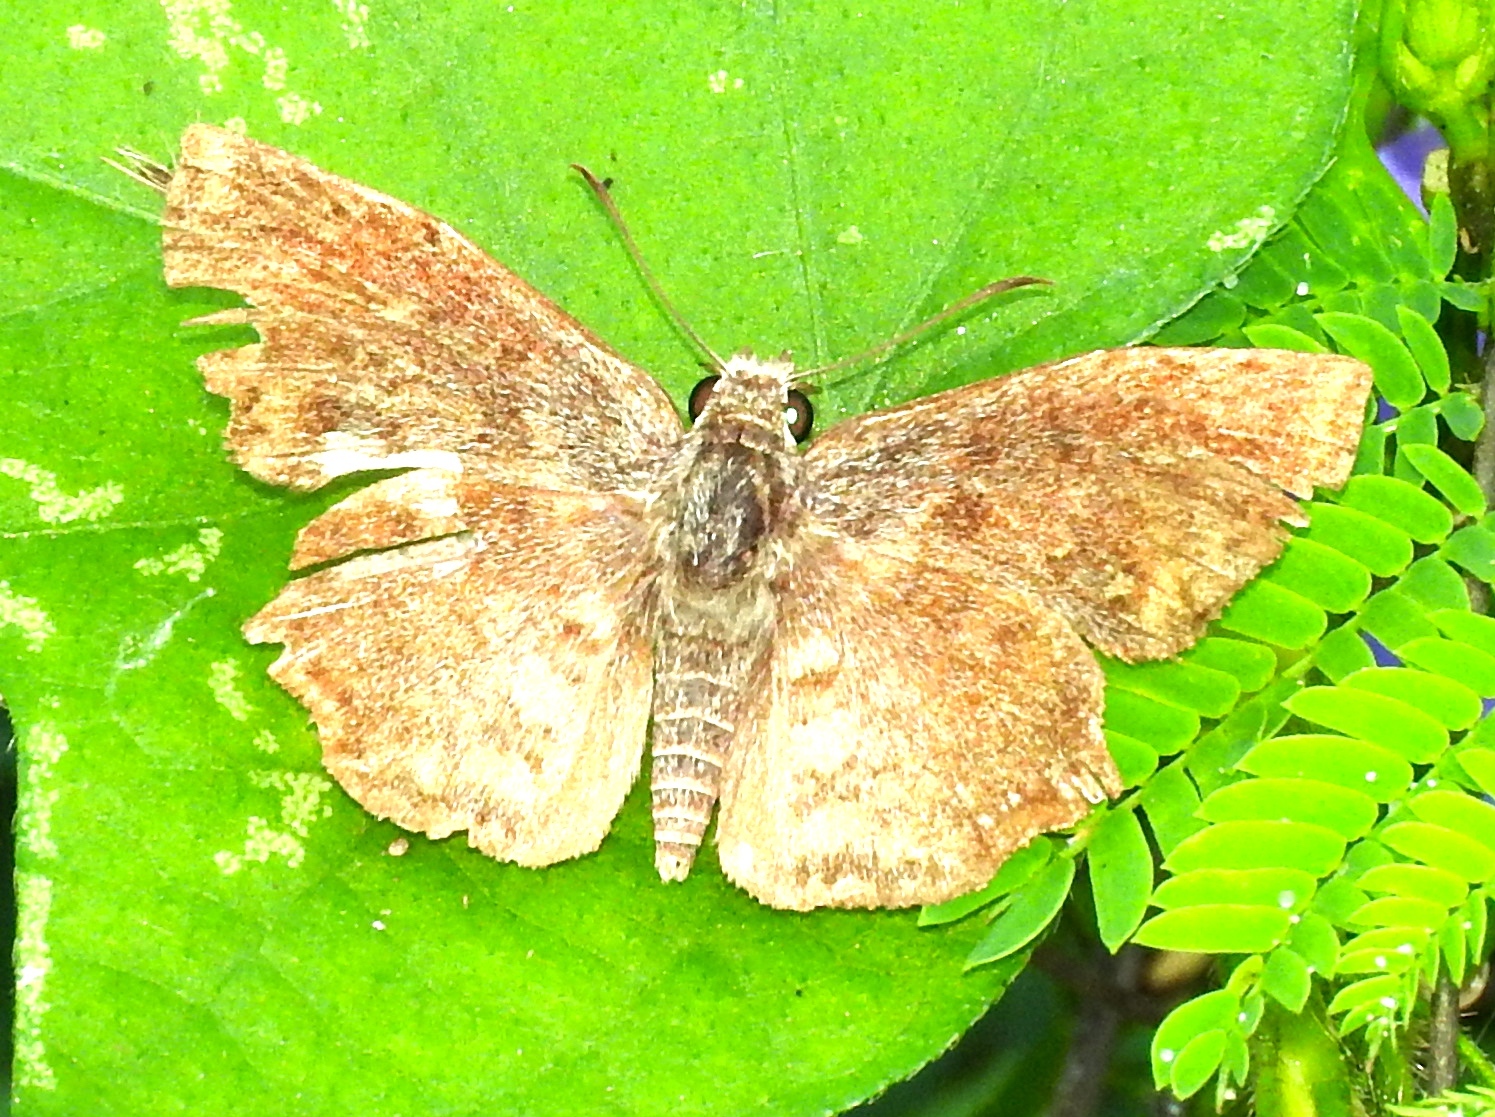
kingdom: Animalia
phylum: Arthropoda
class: Insecta
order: Lepidoptera
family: Hesperiidae
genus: Antigonus
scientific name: Antigonus erosus
